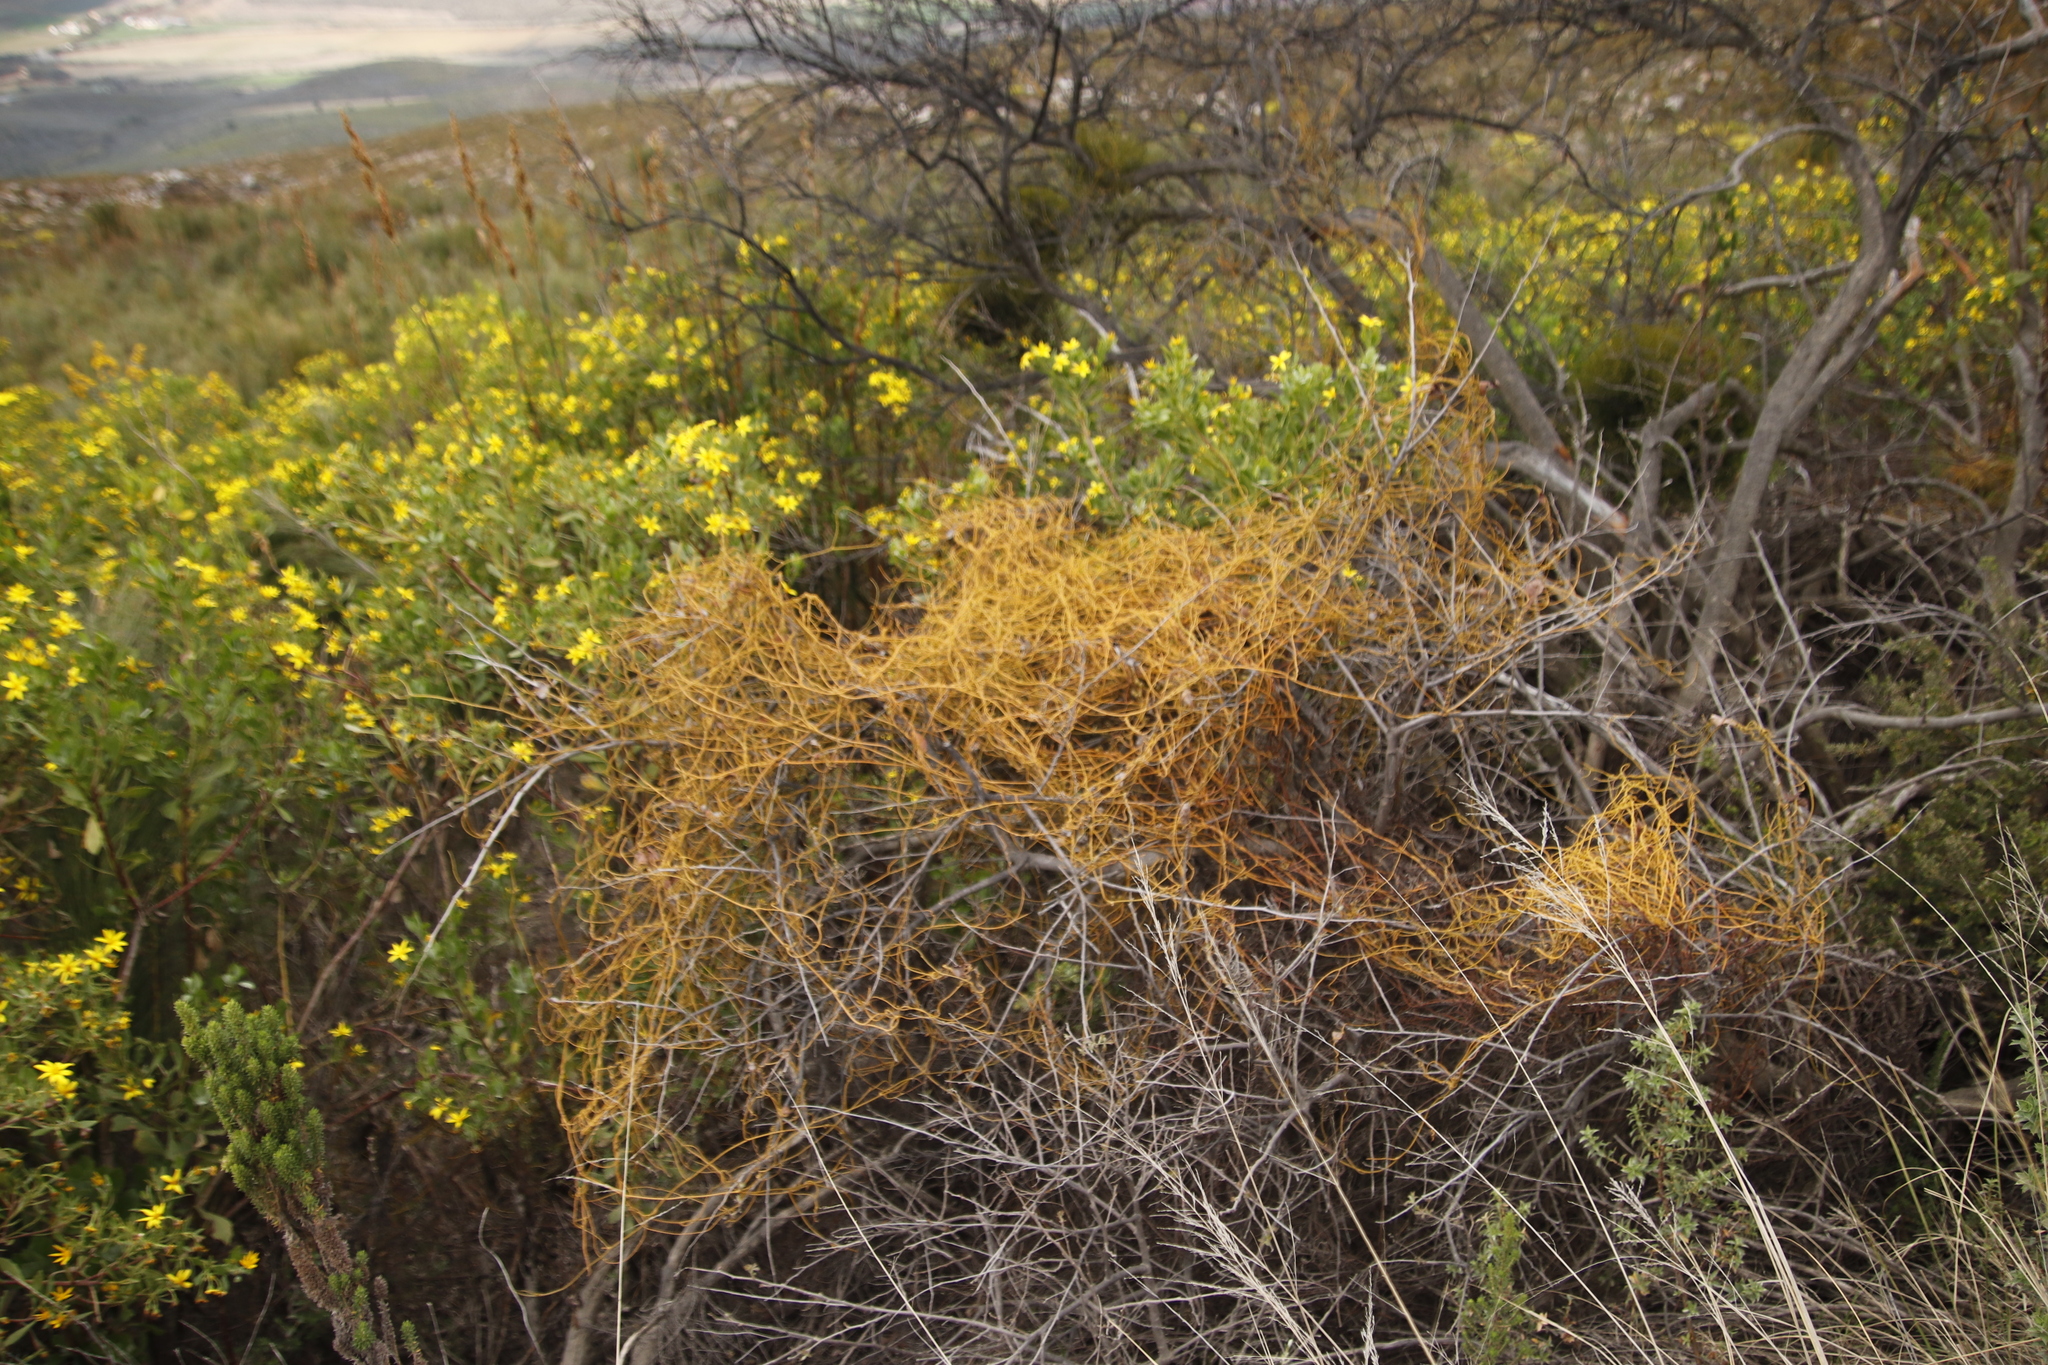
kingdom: Plantae
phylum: Tracheophyta
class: Magnoliopsida
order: Laurales
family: Lauraceae
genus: Cassytha
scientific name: Cassytha ciliolata
